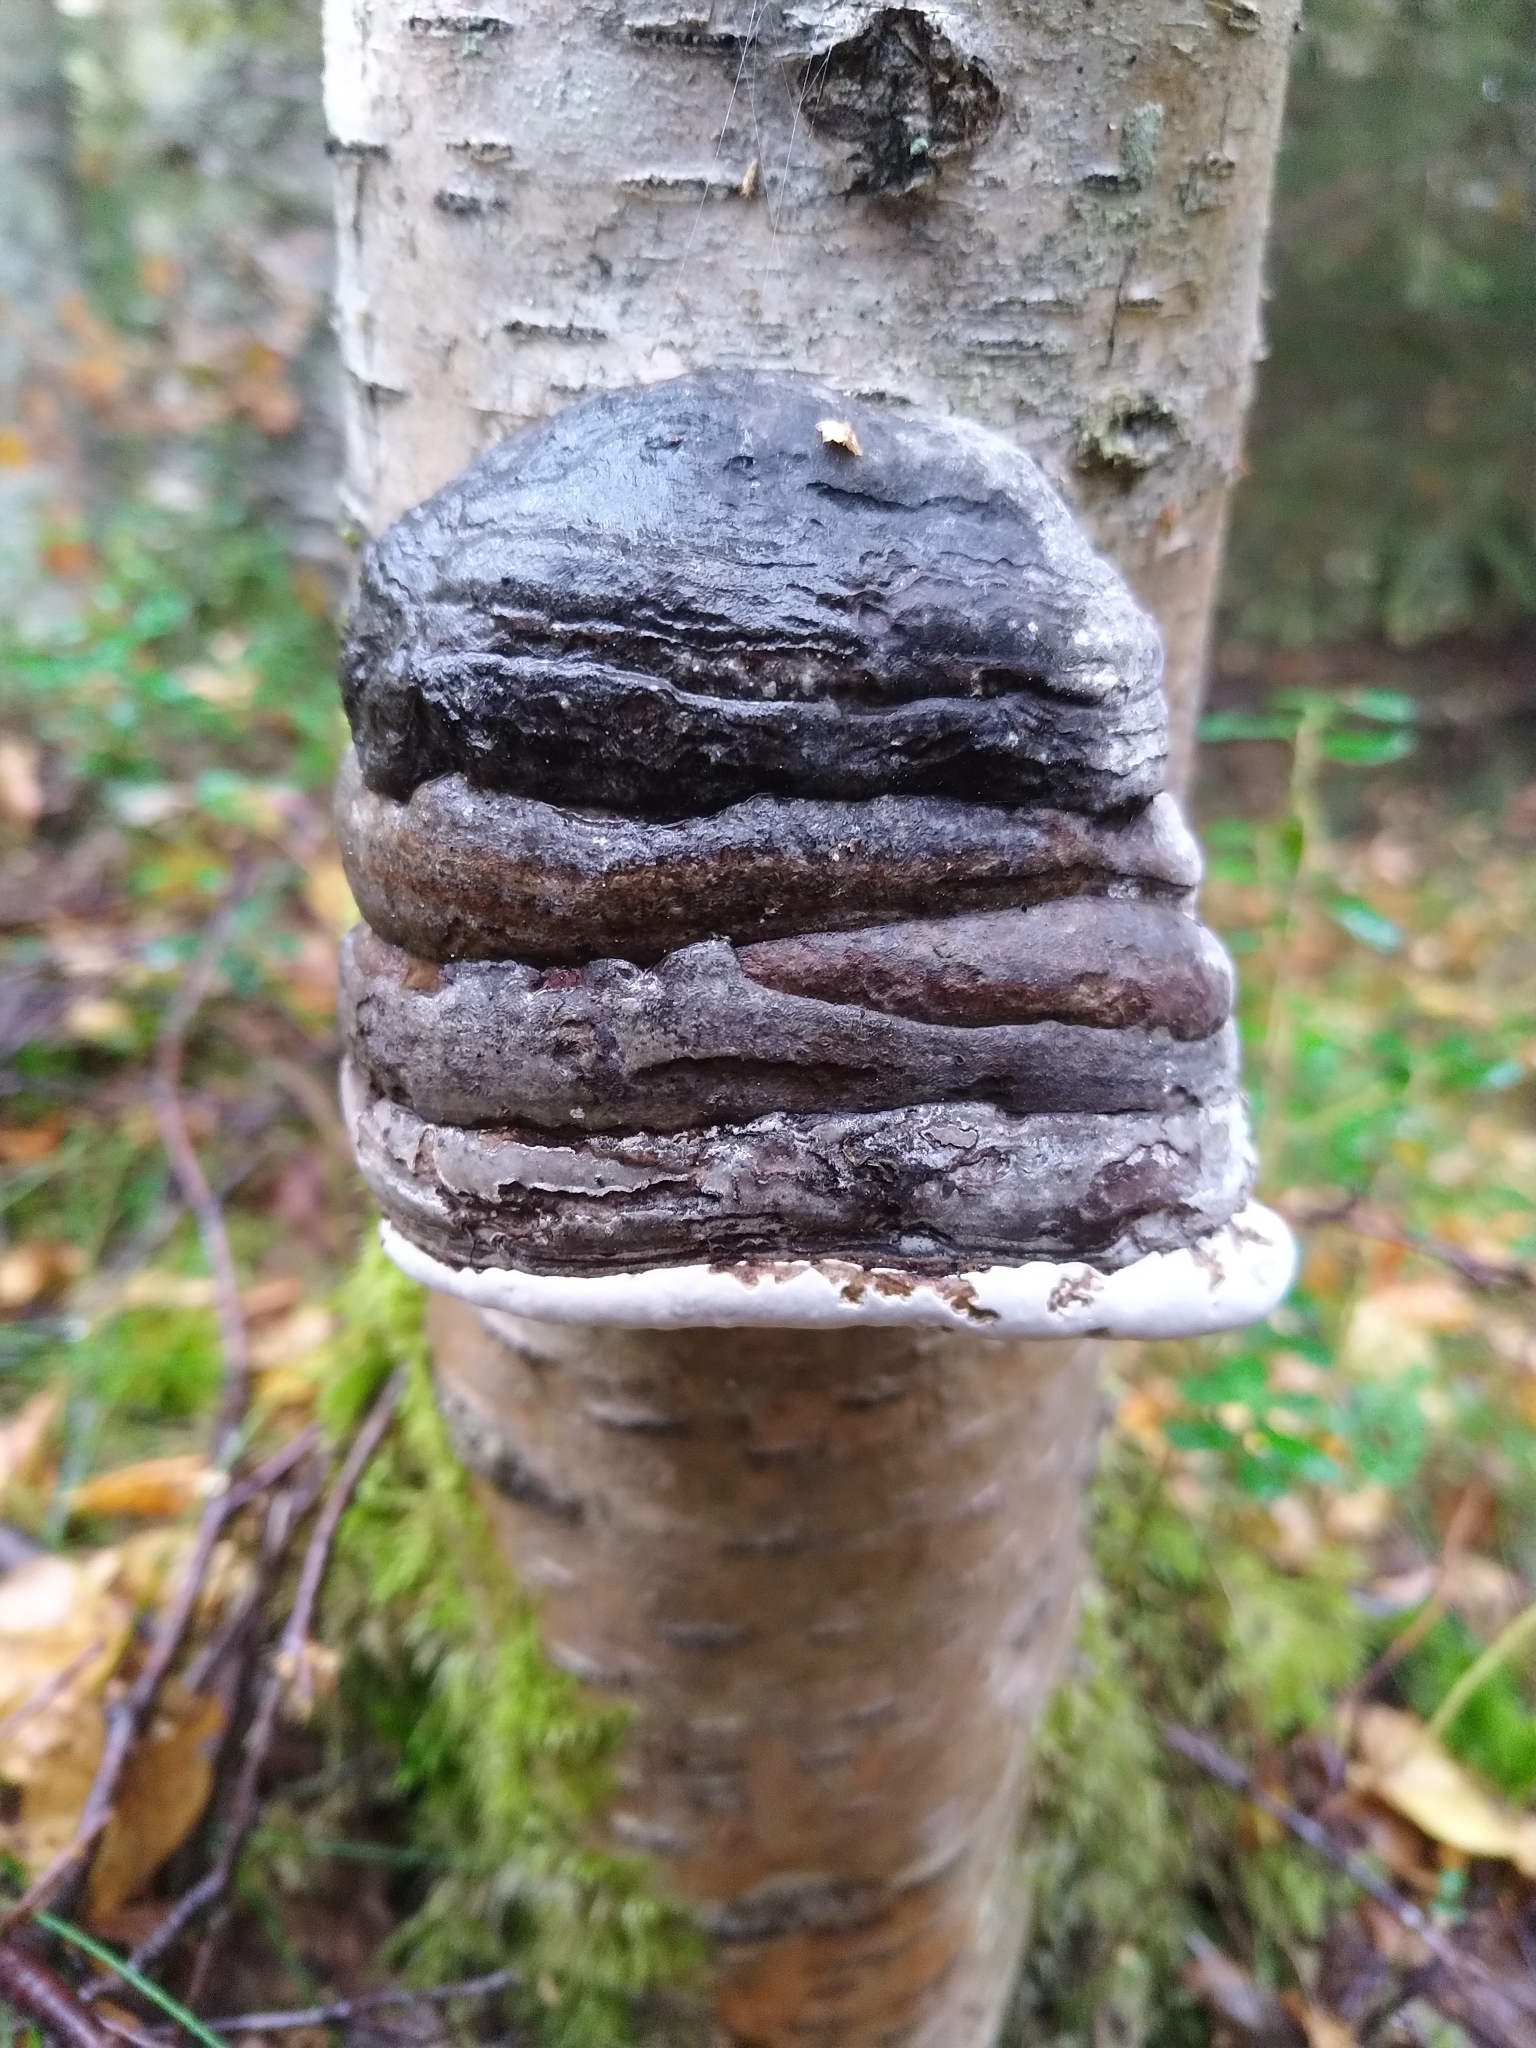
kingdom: Fungi
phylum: Basidiomycota
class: Agaricomycetes
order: Polyporales
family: Polyporaceae
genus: Fomes
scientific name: Fomes fomentarius
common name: Hoof fungus
